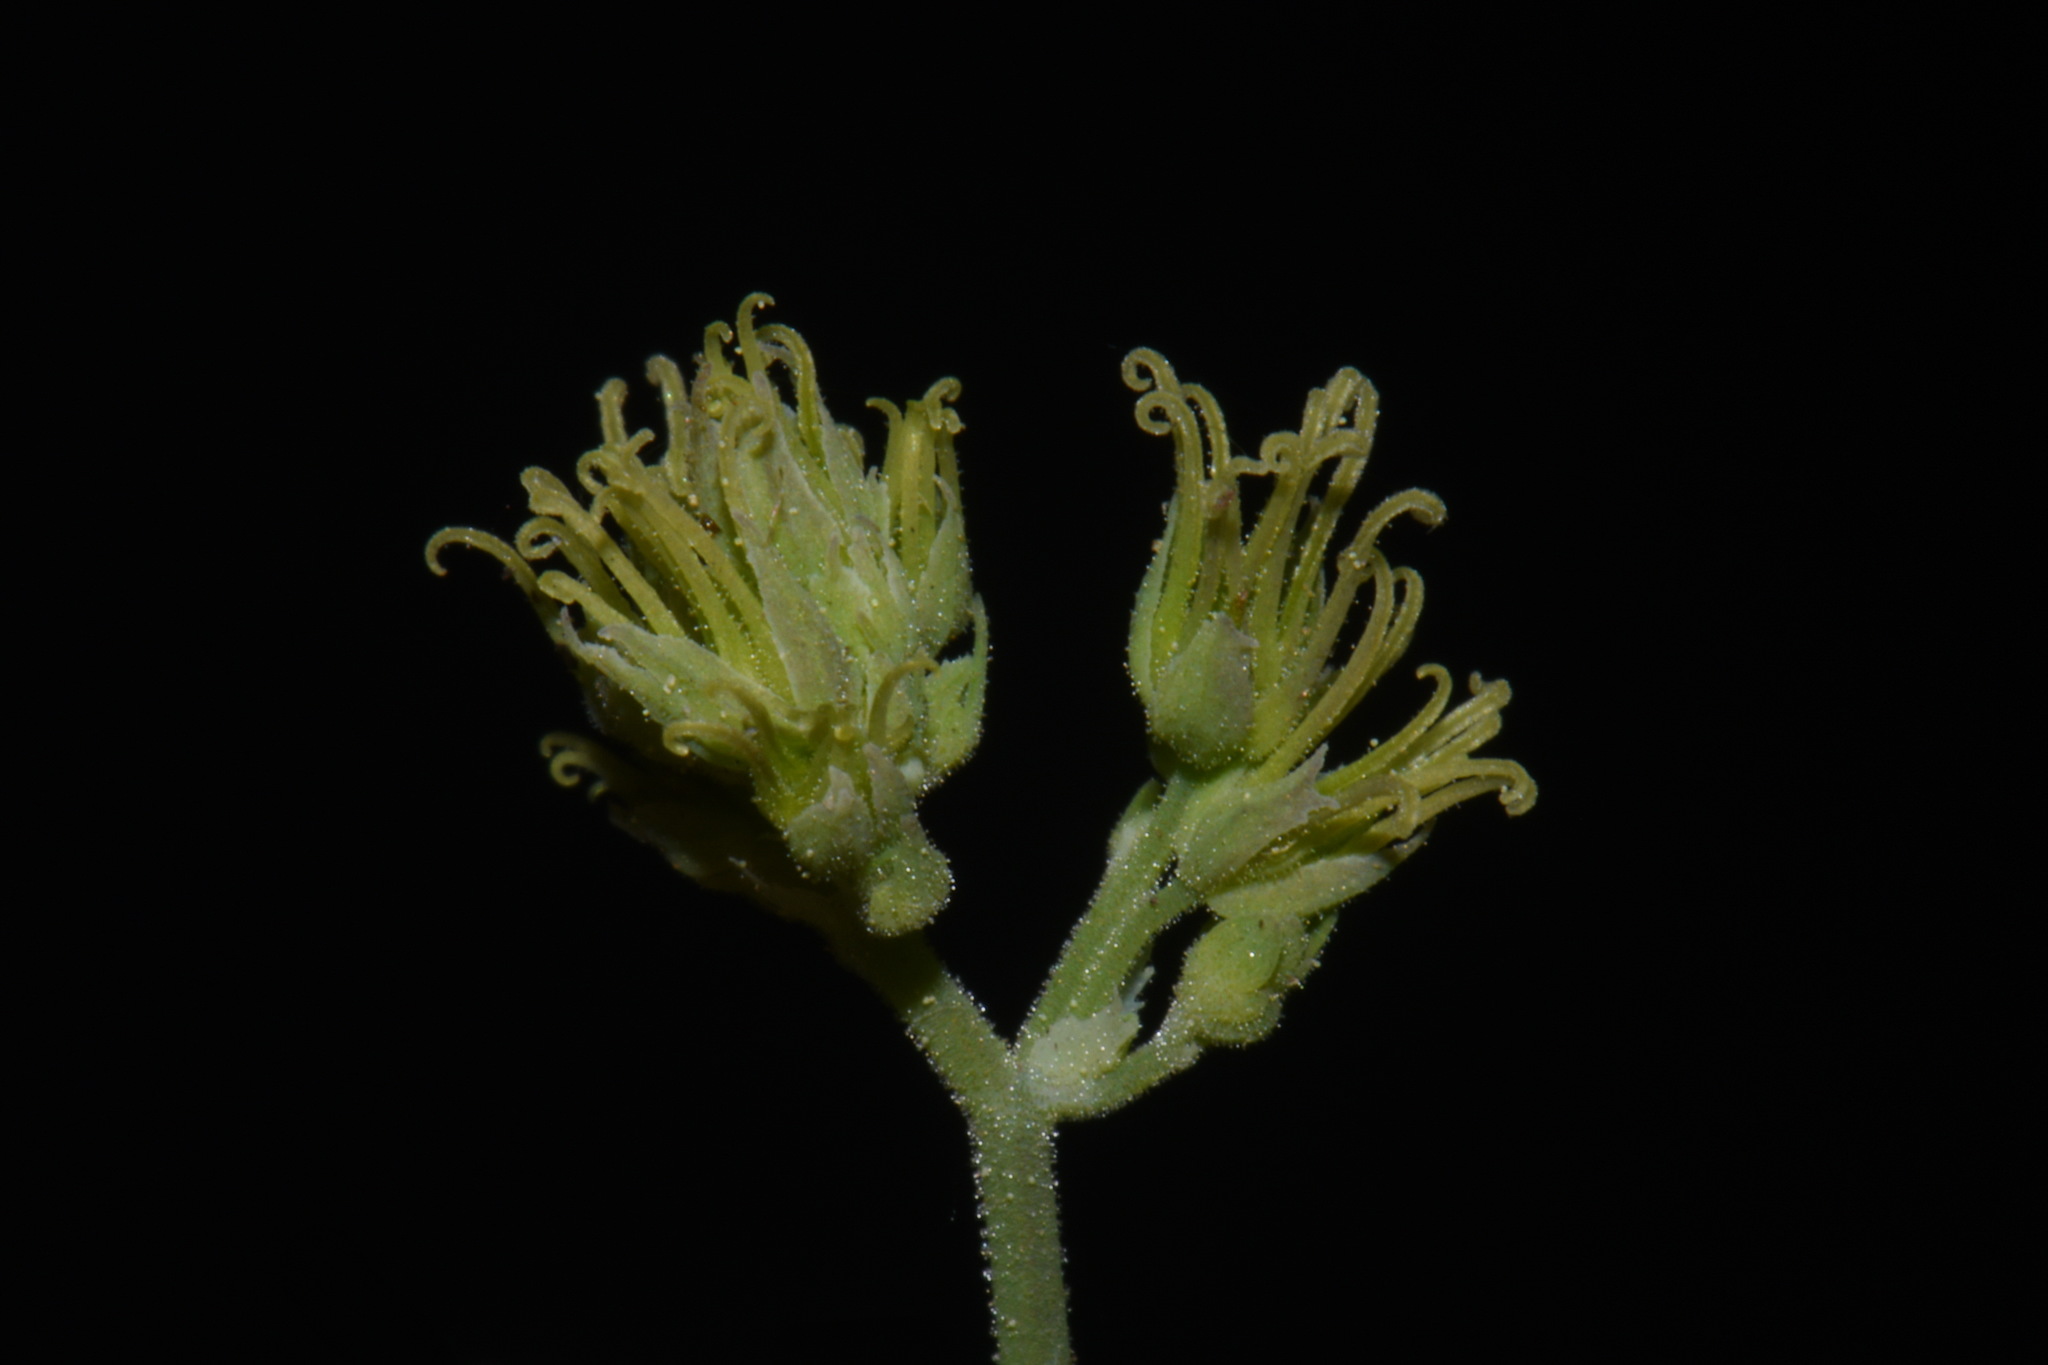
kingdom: Plantae
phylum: Tracheophyta
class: Magnoliopsida
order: Ranunculales
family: Ranunculaceae
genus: Thalictrum
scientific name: Thalictrum fendleri
